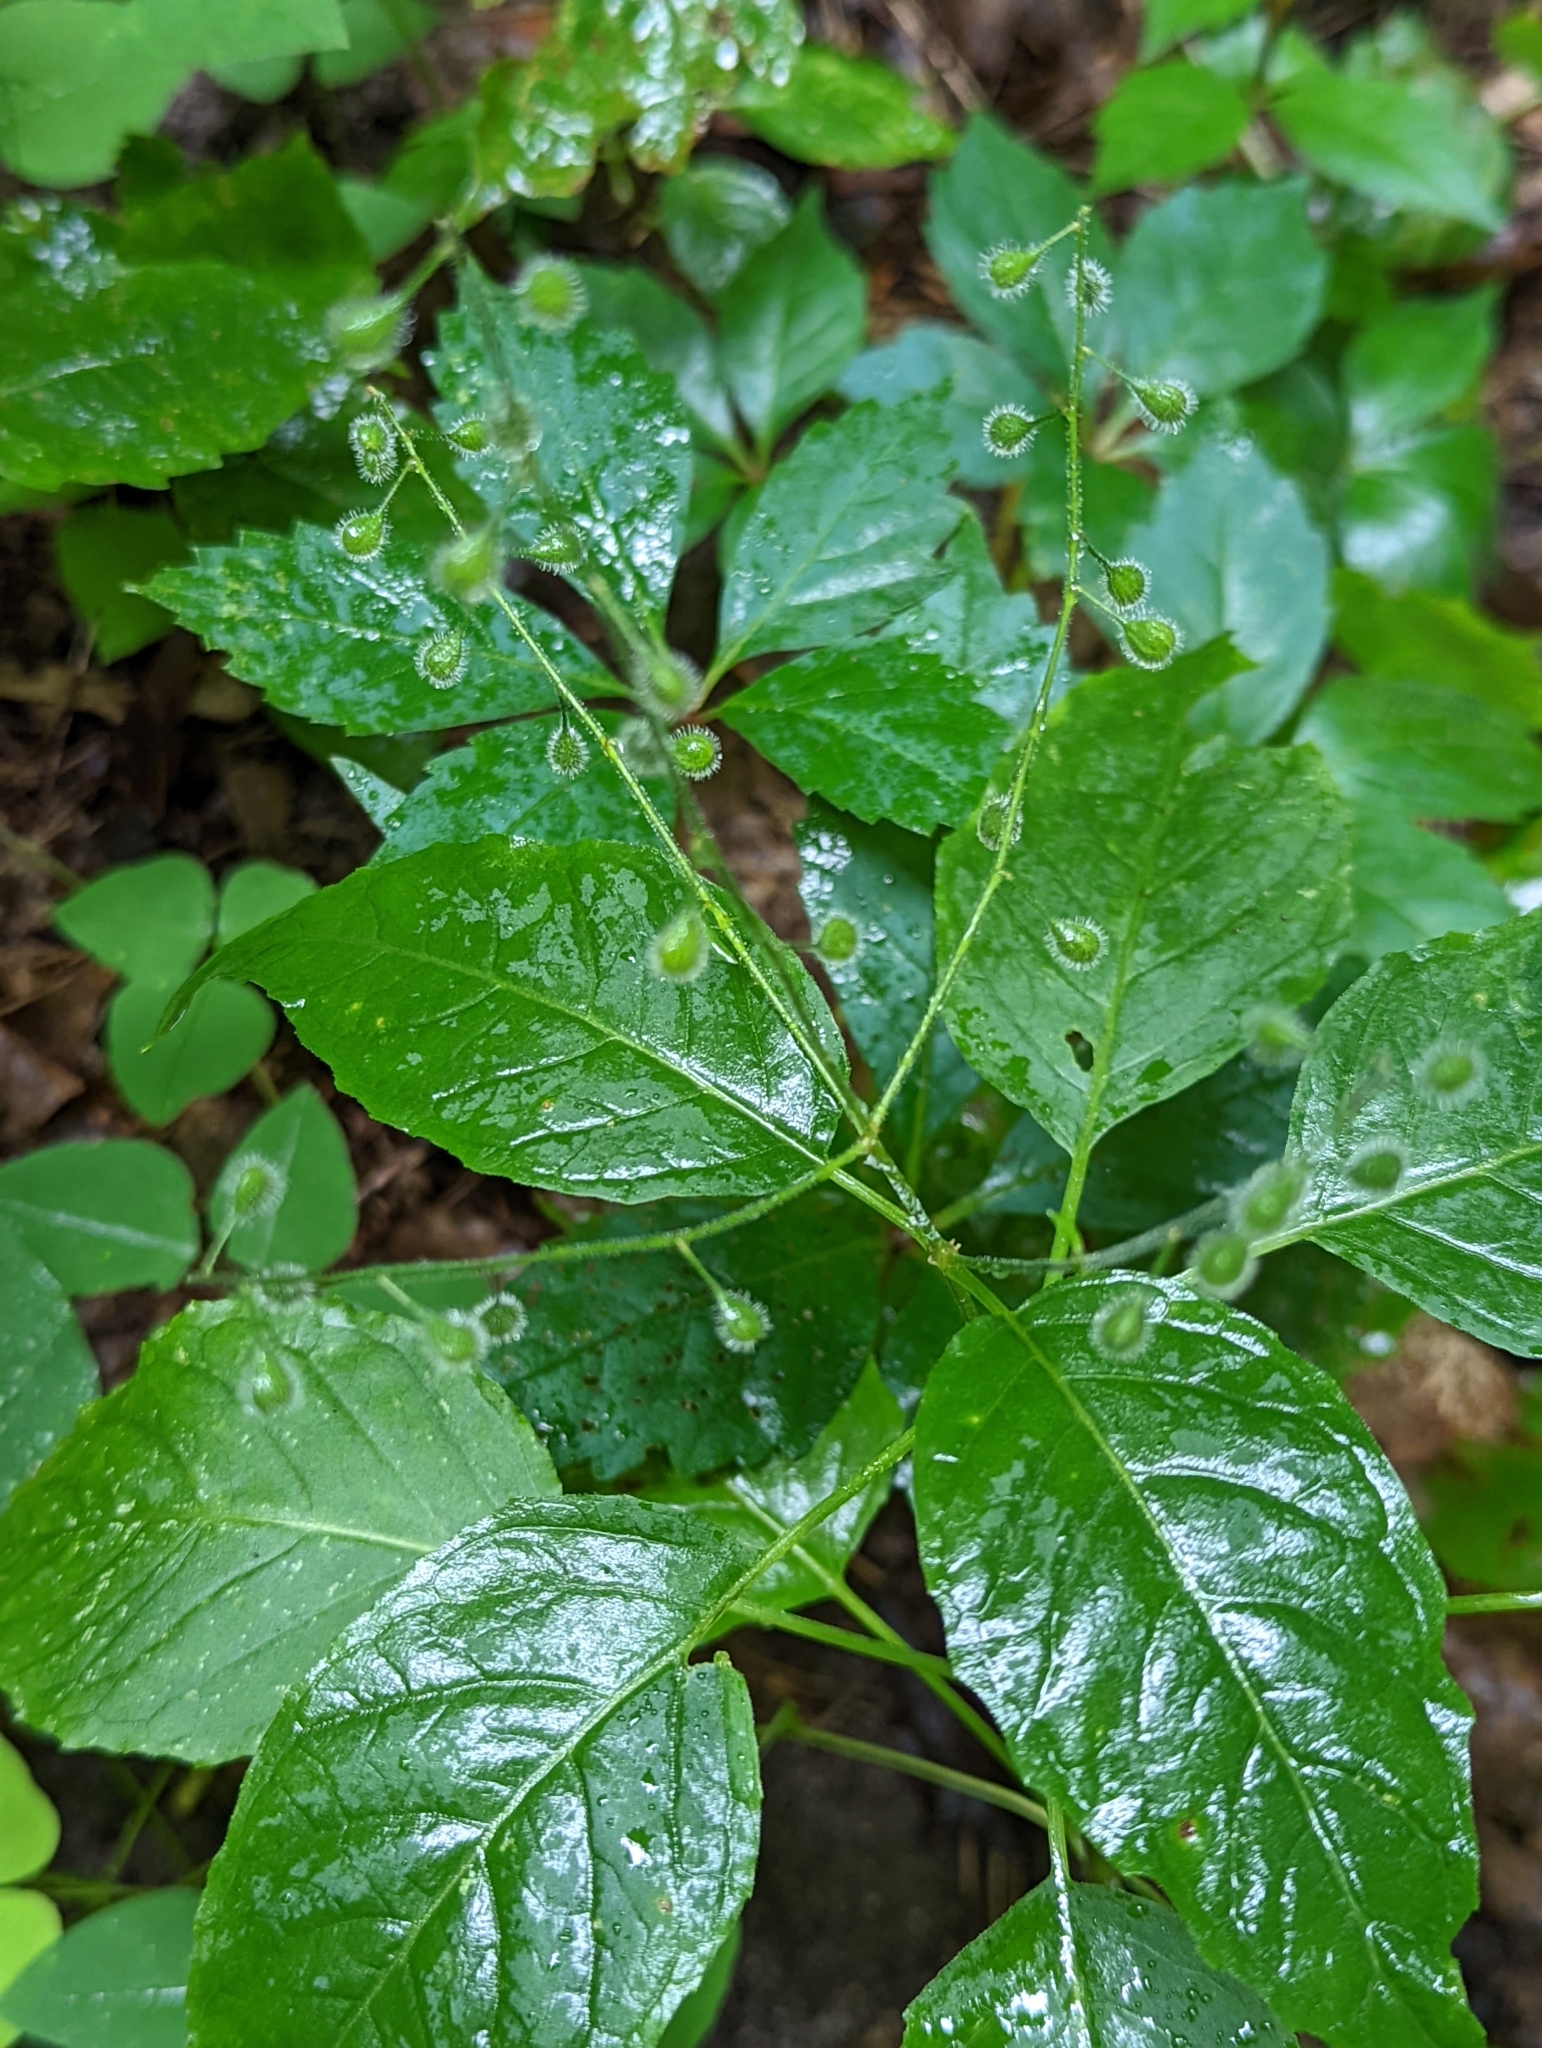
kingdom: Plantae
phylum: Tracheophyta
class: Magnoliopsida
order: Myrtales
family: Onagraceae
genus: Circaea
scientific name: Circaea canadensis
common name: Broad-leaved enchanter's nightshade
